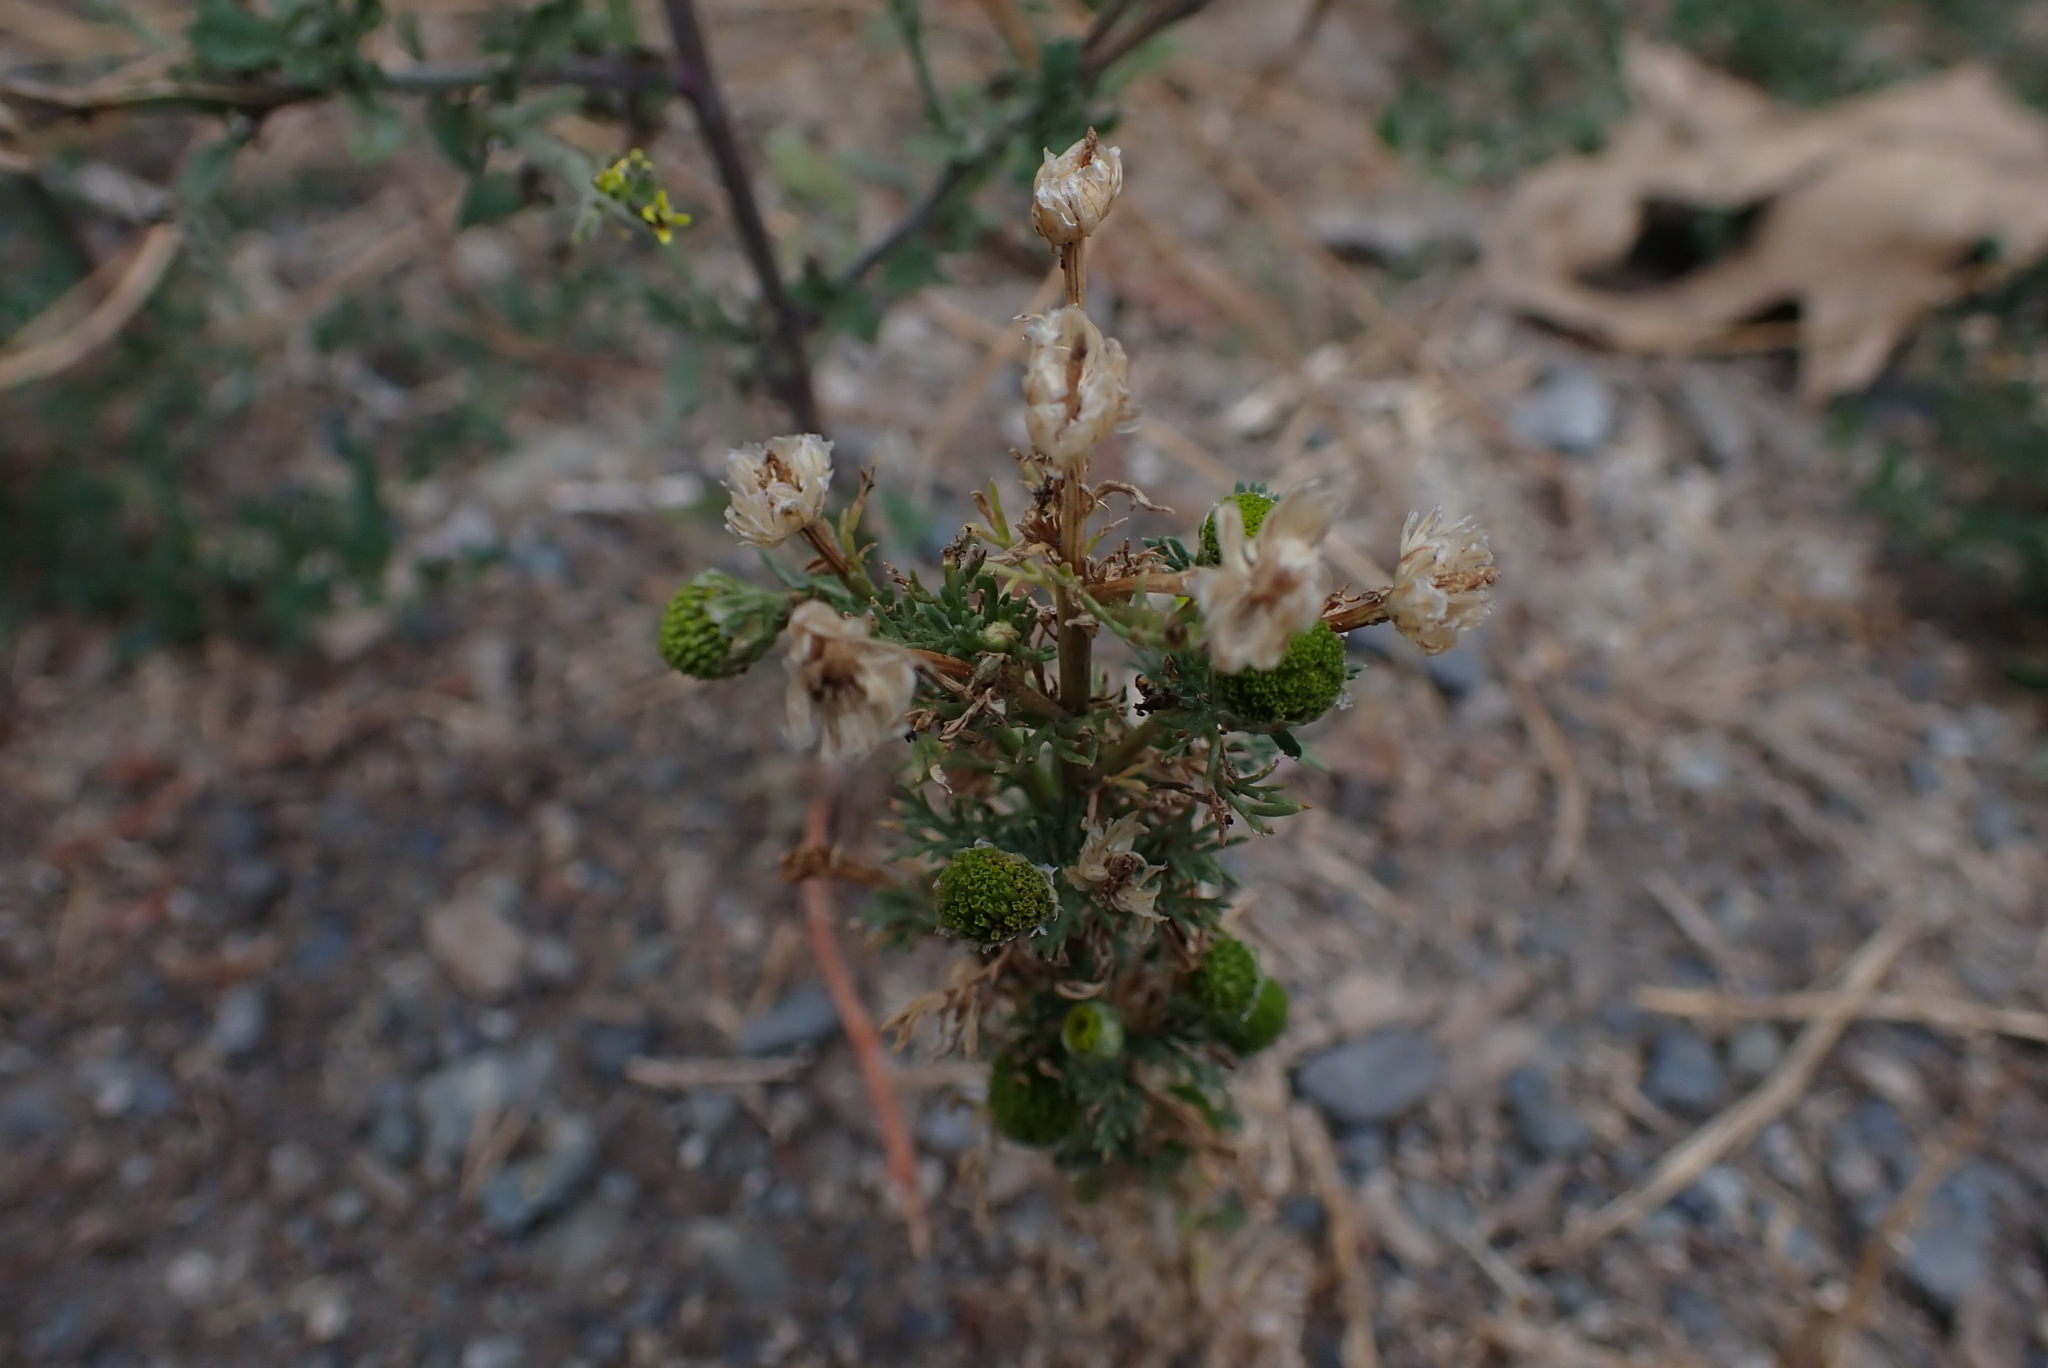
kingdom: Plantae
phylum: Tracheophyta
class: Magnoliopsida
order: Asterales
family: Asteraceae
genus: Matricaria
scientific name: Matricaria discoidea
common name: Disc mayweed
